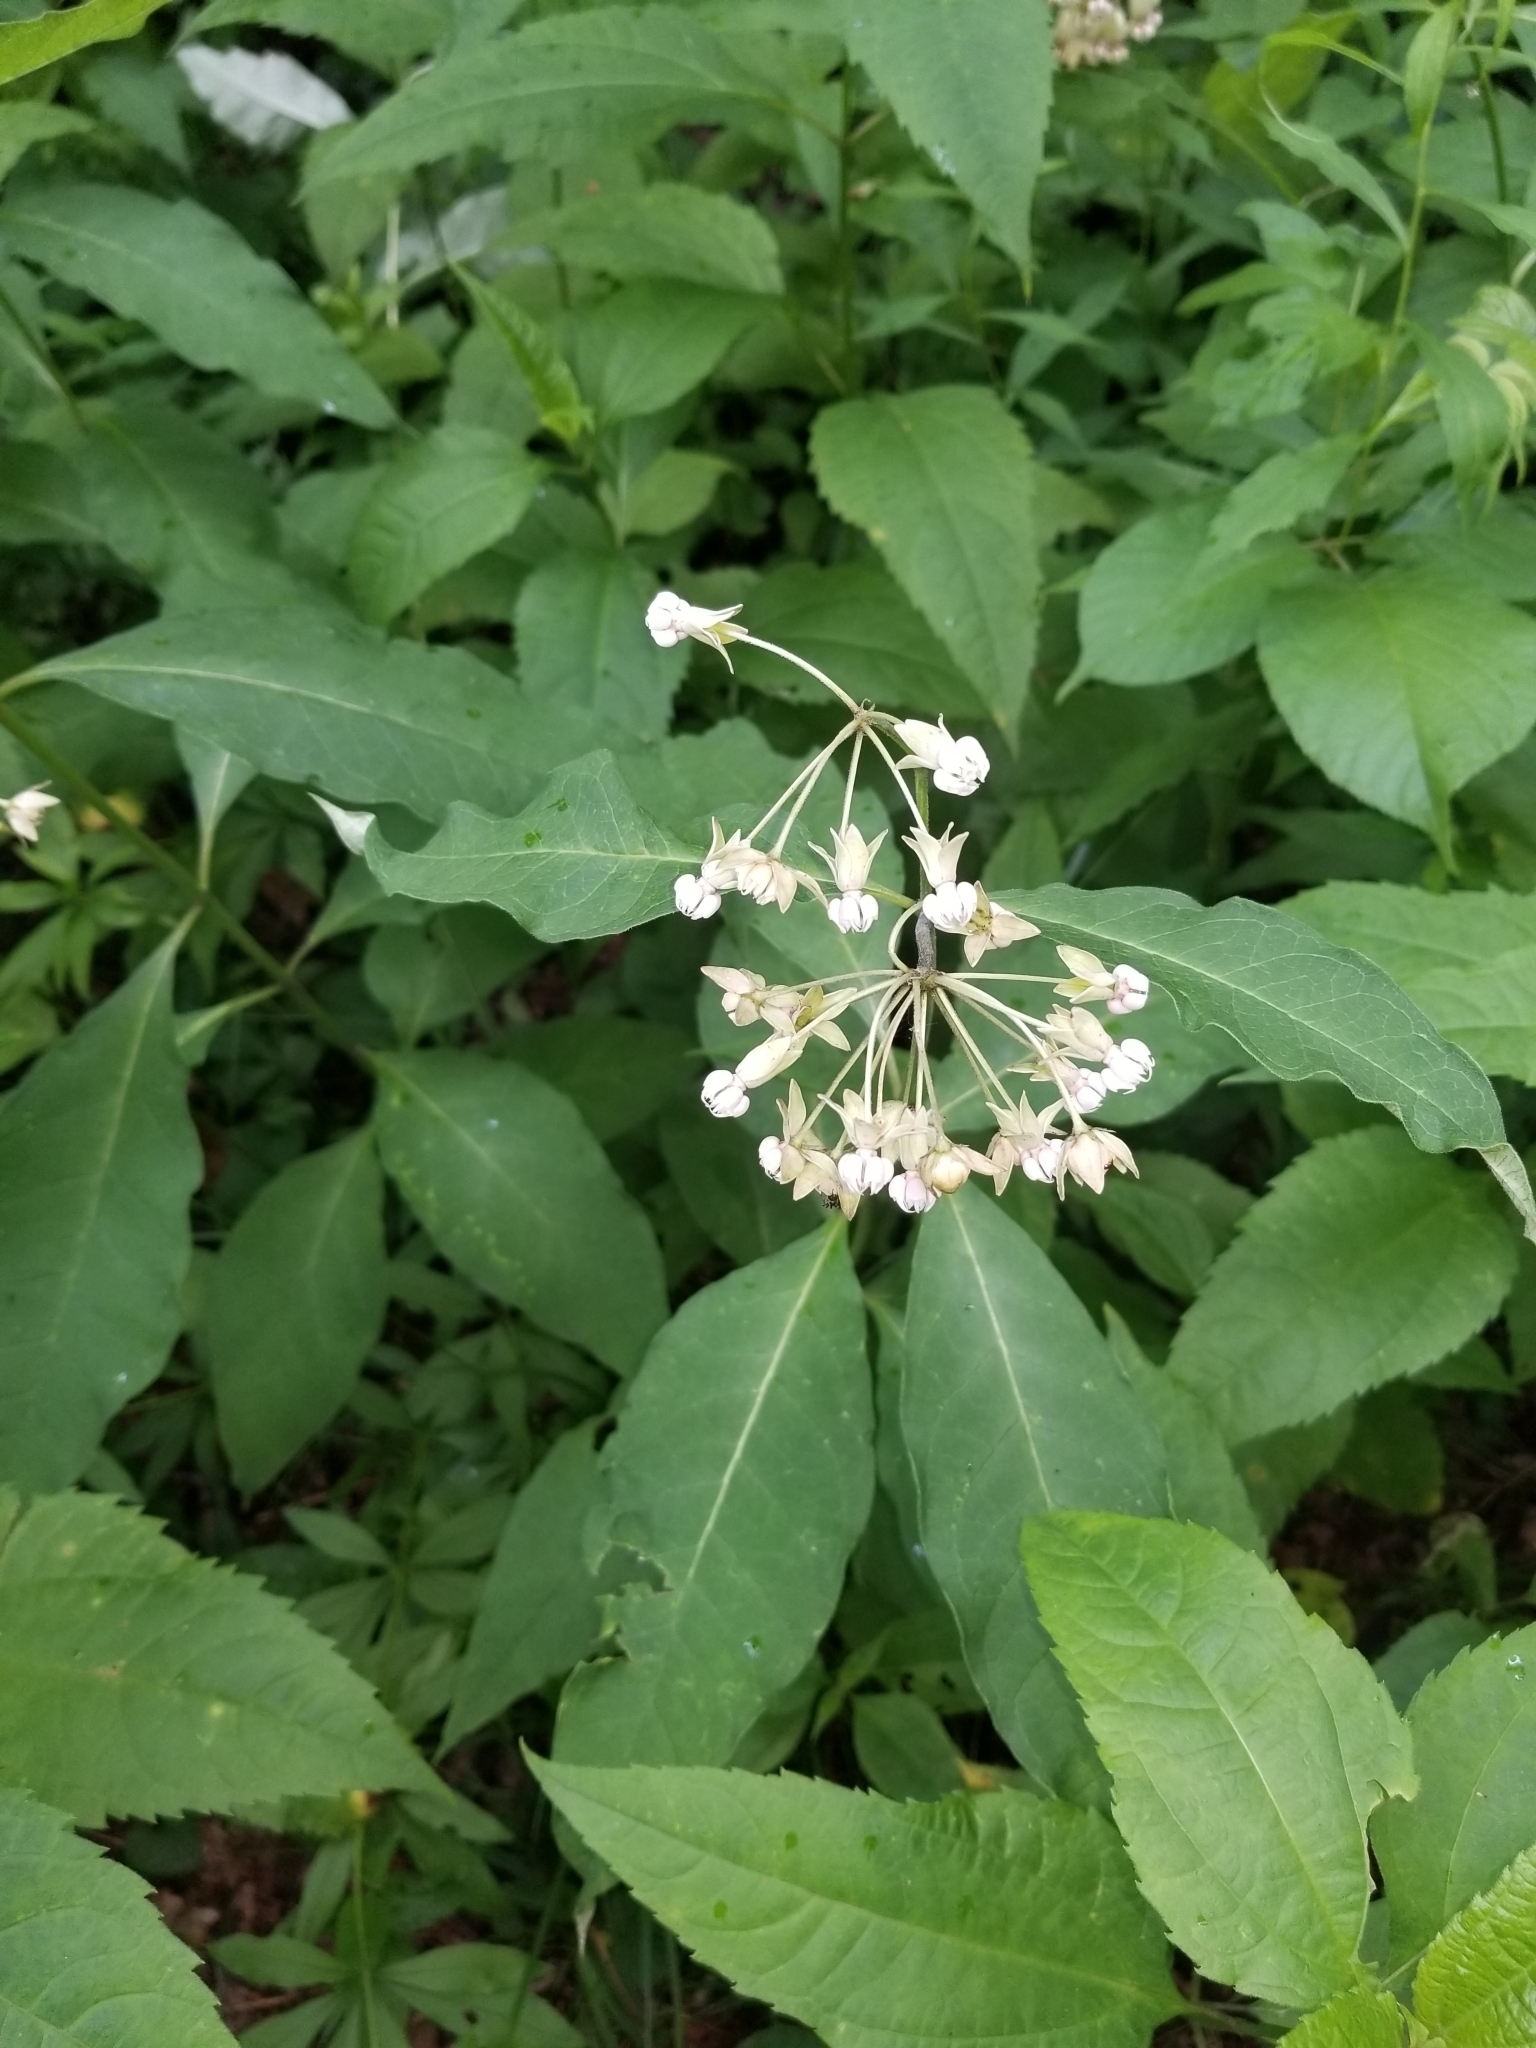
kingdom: Plantae
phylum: Tracheophyta
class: Magnoliopsida
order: Gentianales
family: Apocynaceae
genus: Asclepias
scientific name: Asclepias exaltata
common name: Poke milkweed
